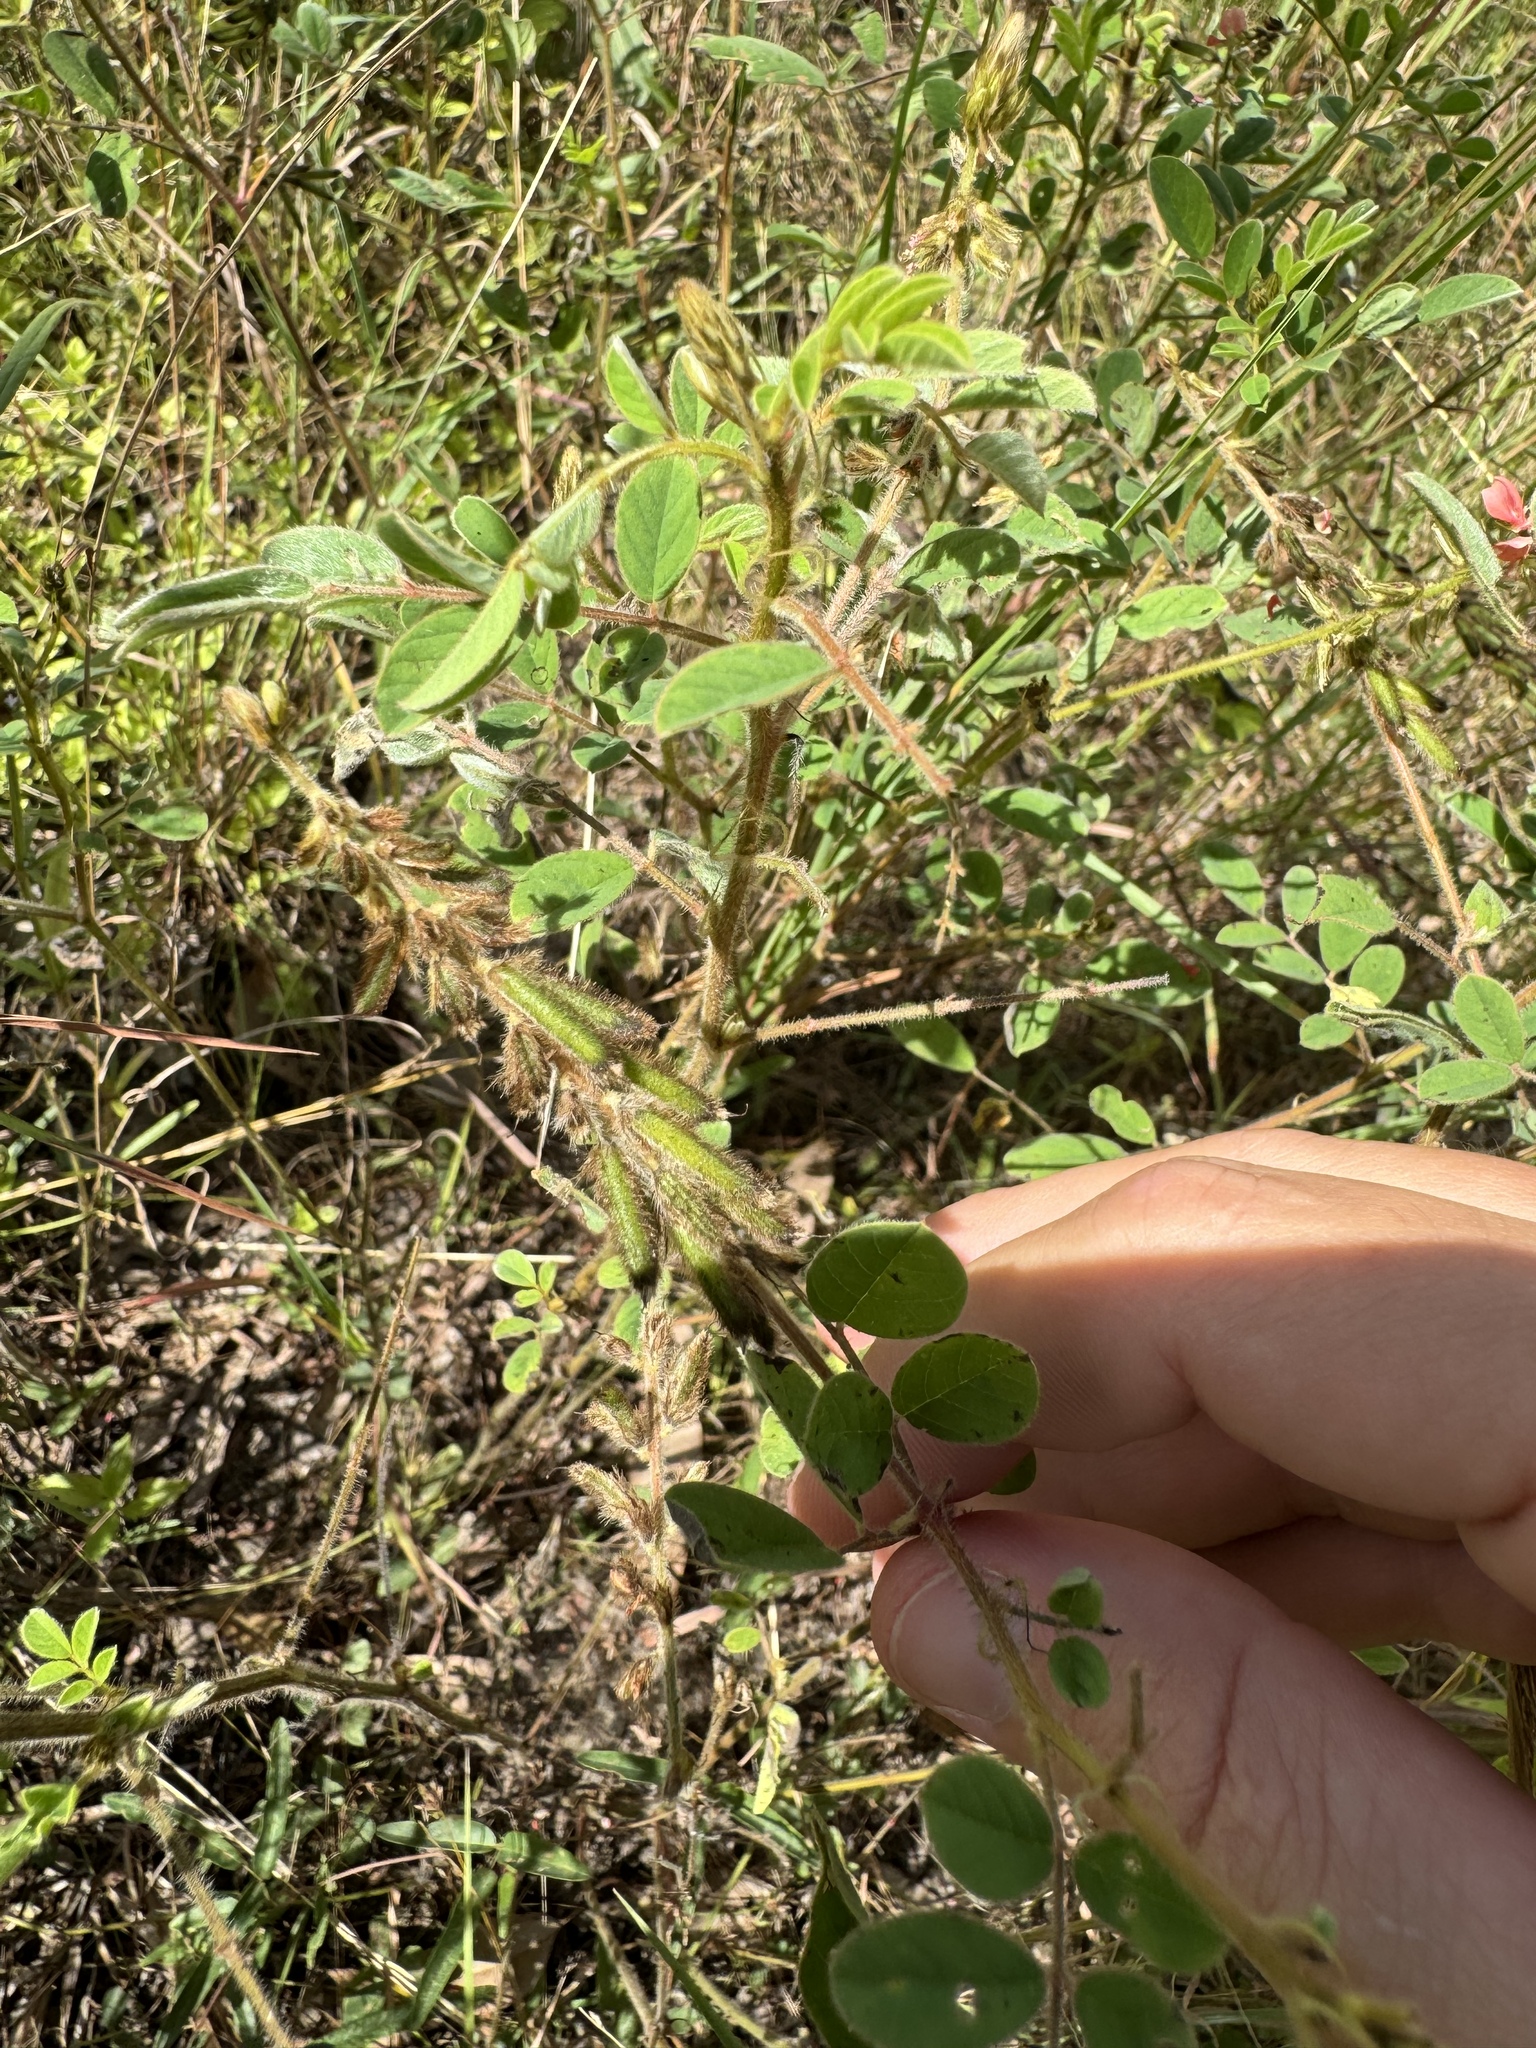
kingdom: Plantae
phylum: Tracheophyta
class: Magnoliopsida
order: Fabales
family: Fabaceae
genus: Indigofera
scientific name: Indigofera hirsuta
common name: Hairy indigo
